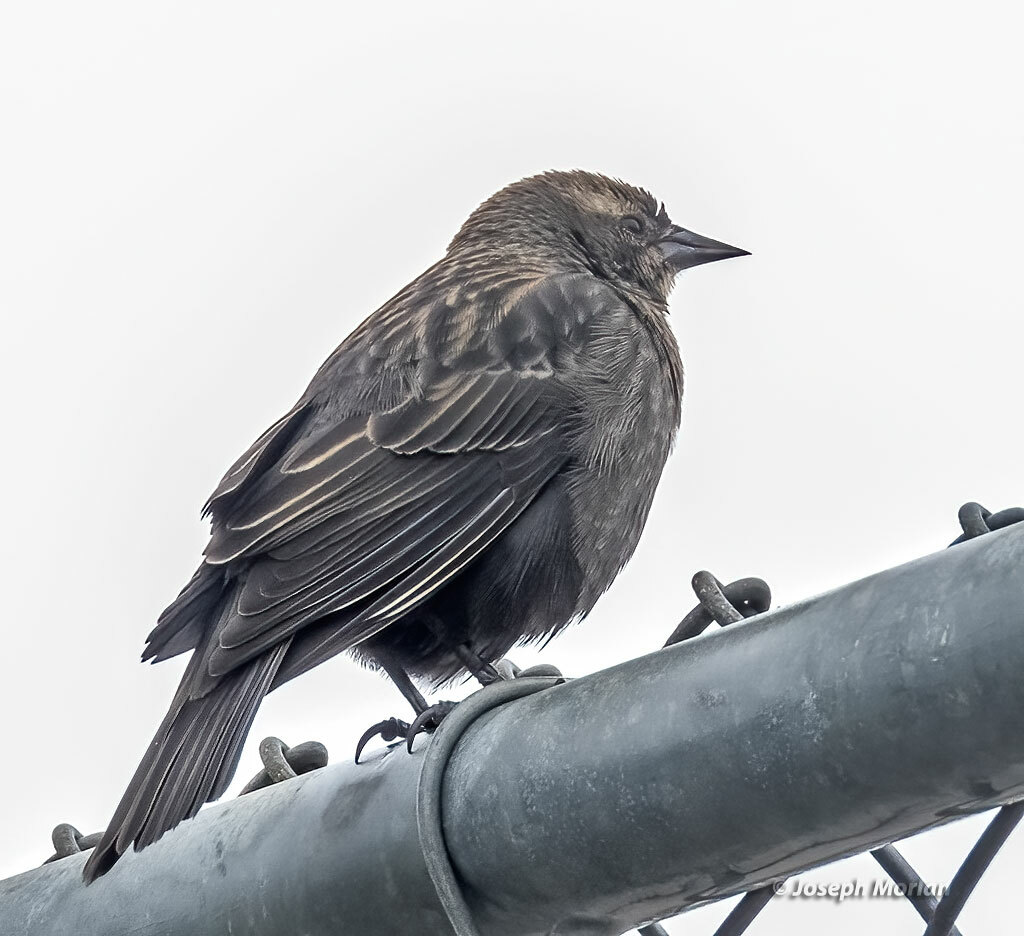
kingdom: Animalia
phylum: Chordata
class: Aves
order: Passeriformes
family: Icteridae
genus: Agelaius
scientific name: Agelaius phoeniceus
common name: Red-winged blackbird
